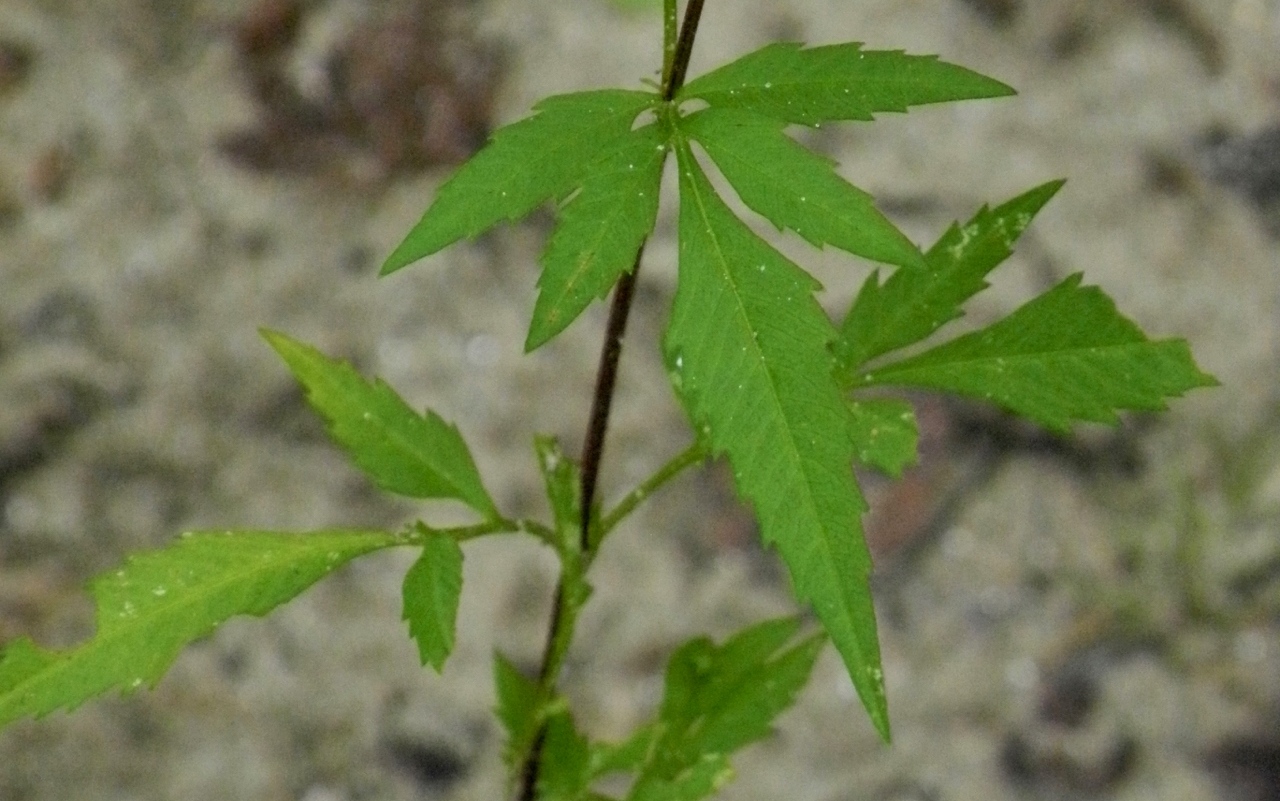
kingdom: Plantae
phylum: Tracheophyta
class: Magnoliopsida
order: Asterales
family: Asteraceae
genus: Bidens
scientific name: Bidens polylepis
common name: Awnless beggarticks
